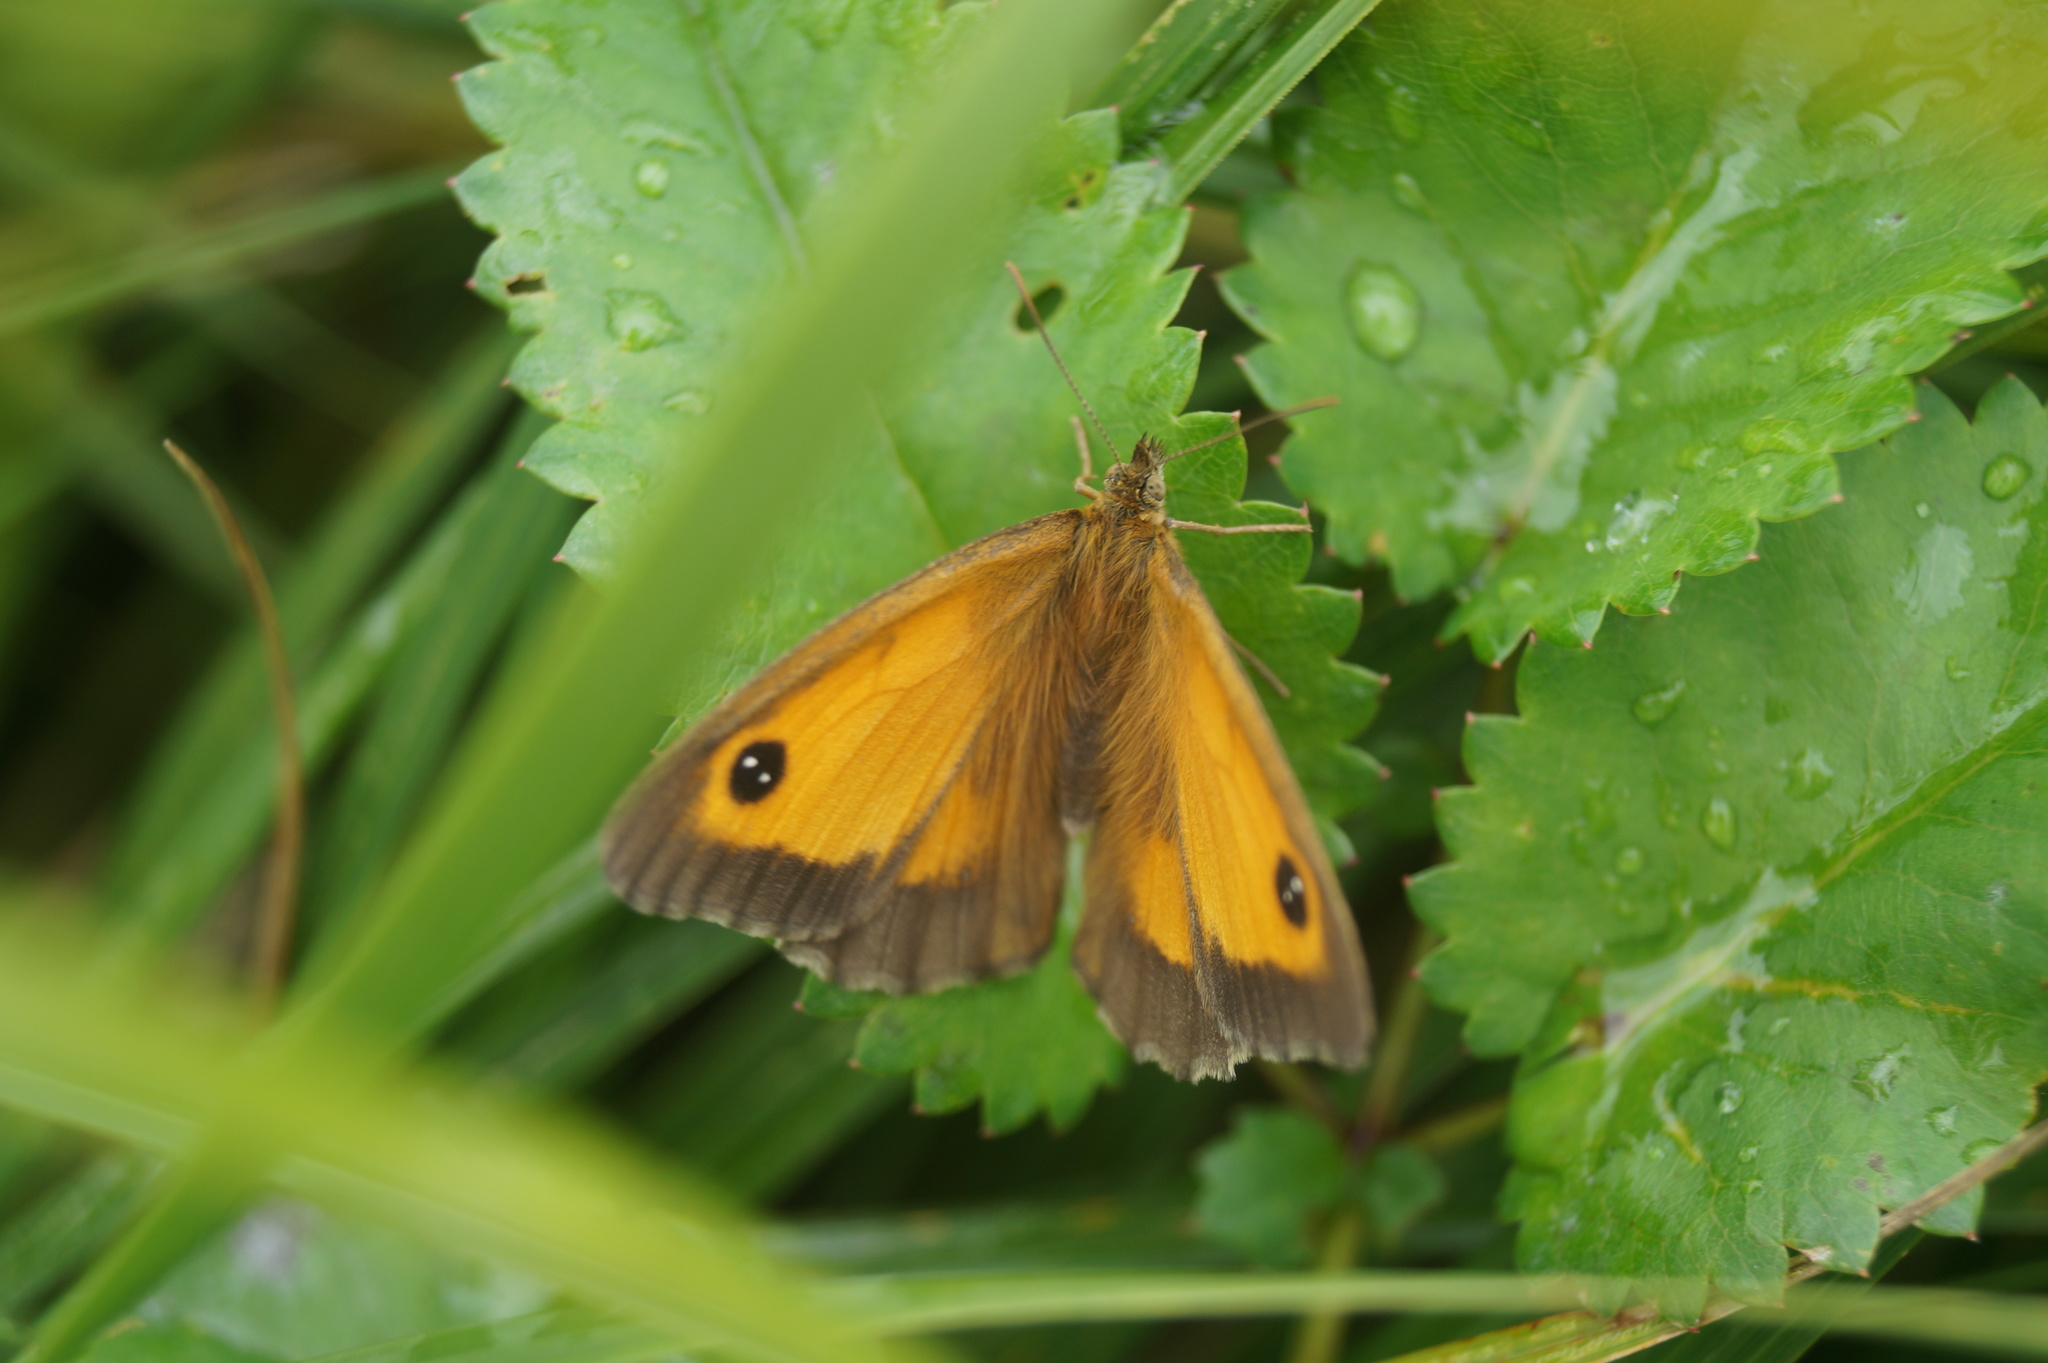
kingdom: Animalia
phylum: Arthropoda
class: Insecta
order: Lepidoptera
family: Nymphalidae
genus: Pyronia
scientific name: Pyronia tithonus
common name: Gatekeeper
